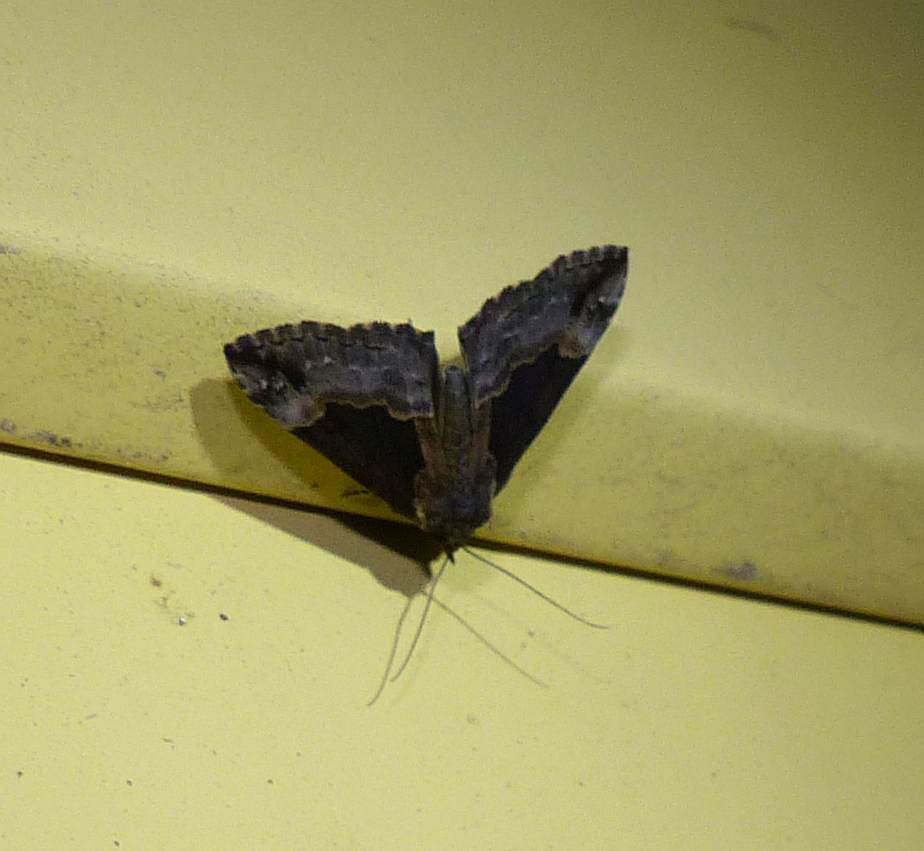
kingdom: Animalia
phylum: Arthropoda
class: Insecta
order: Lepidoptera
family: Geometridae
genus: Euphyia
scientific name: Euphyia intermediata
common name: Sharp-angled carpet
